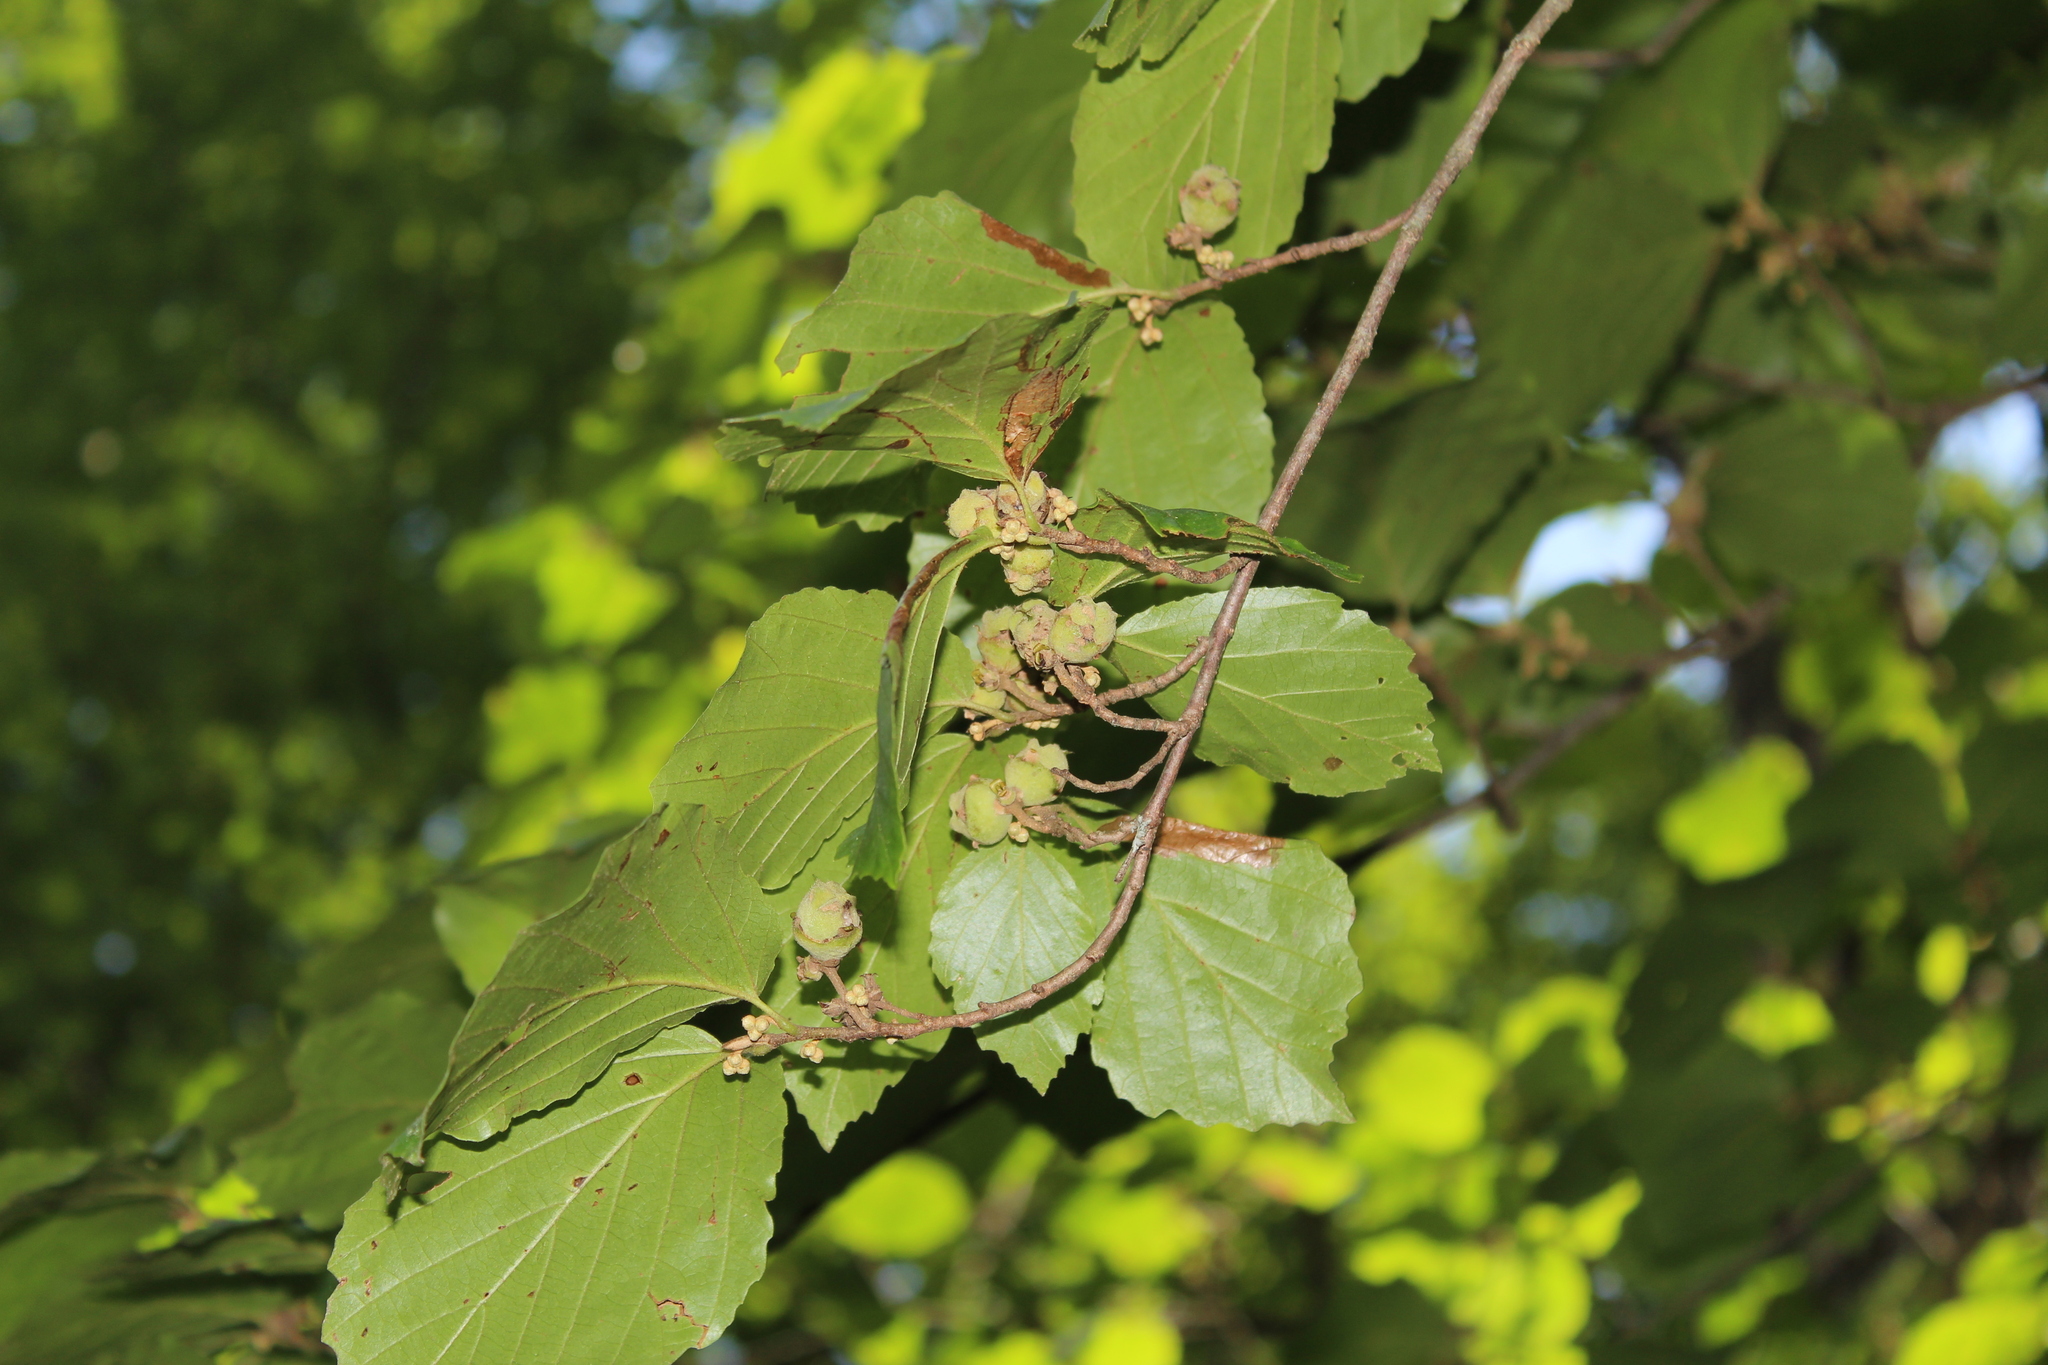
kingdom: Plantae
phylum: Tracheophyta
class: Magnoliopsida
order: Saxifragales
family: Hamamelidaceae
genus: Hamamelis
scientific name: Hamamelis virginiana
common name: Witch-hazel
